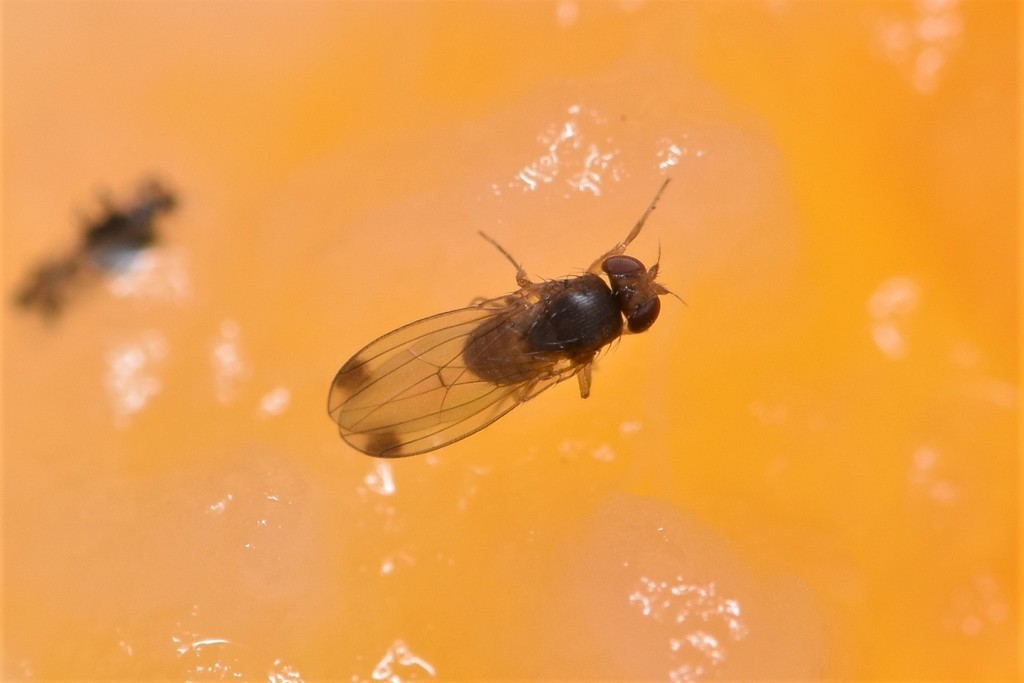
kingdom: Animalia
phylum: Arthropoda
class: Insecta
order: Diptera
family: Drosophilidae
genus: Drosophila
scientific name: Drosophila suzukii
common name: Spotted-wing drosophila
